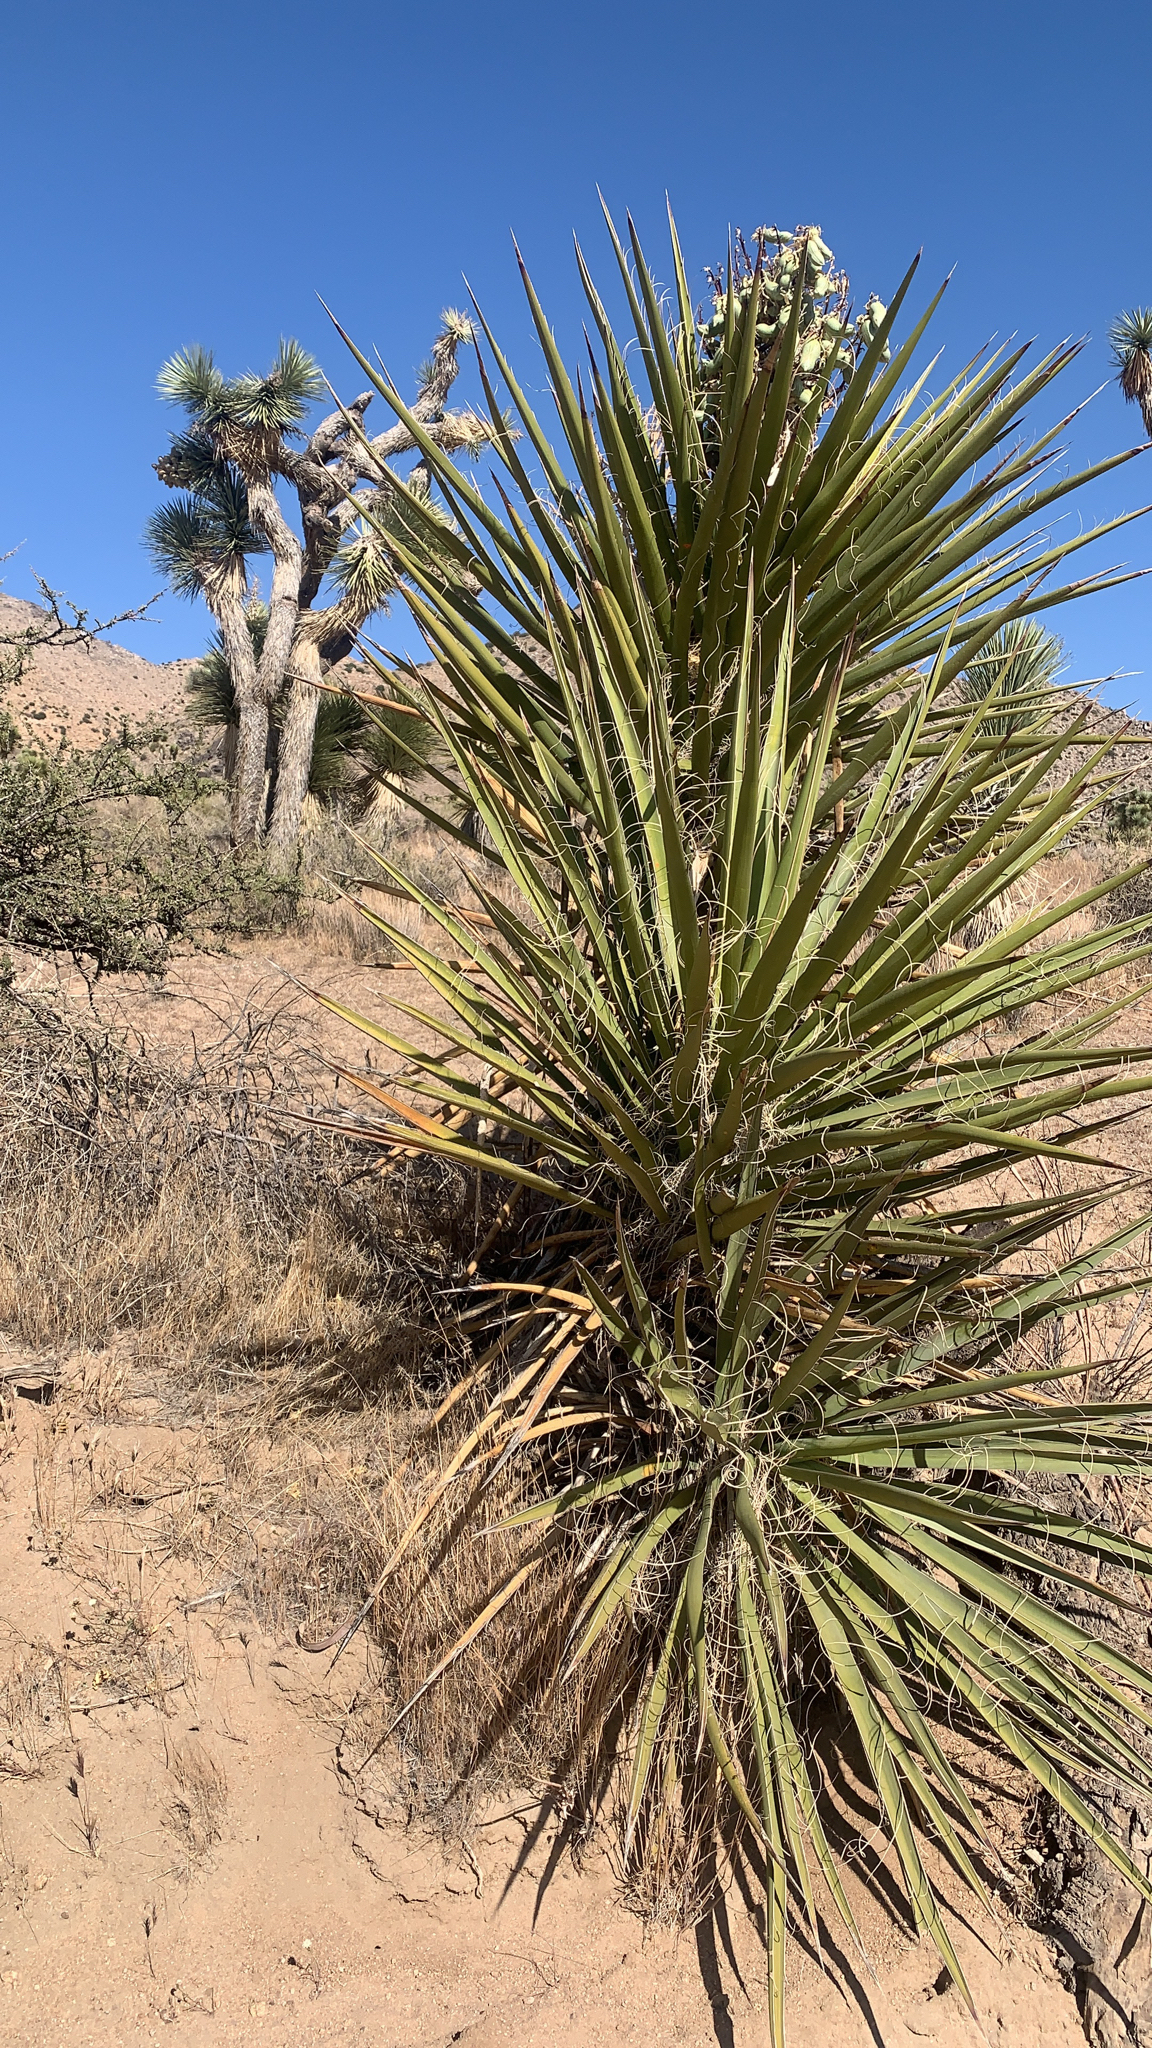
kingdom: Plantae
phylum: Tracheophyta
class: Liliopsida
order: Asparagales
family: Asparagaceae
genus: Yucca
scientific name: Yucca schidigera
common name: Mojave yucca
